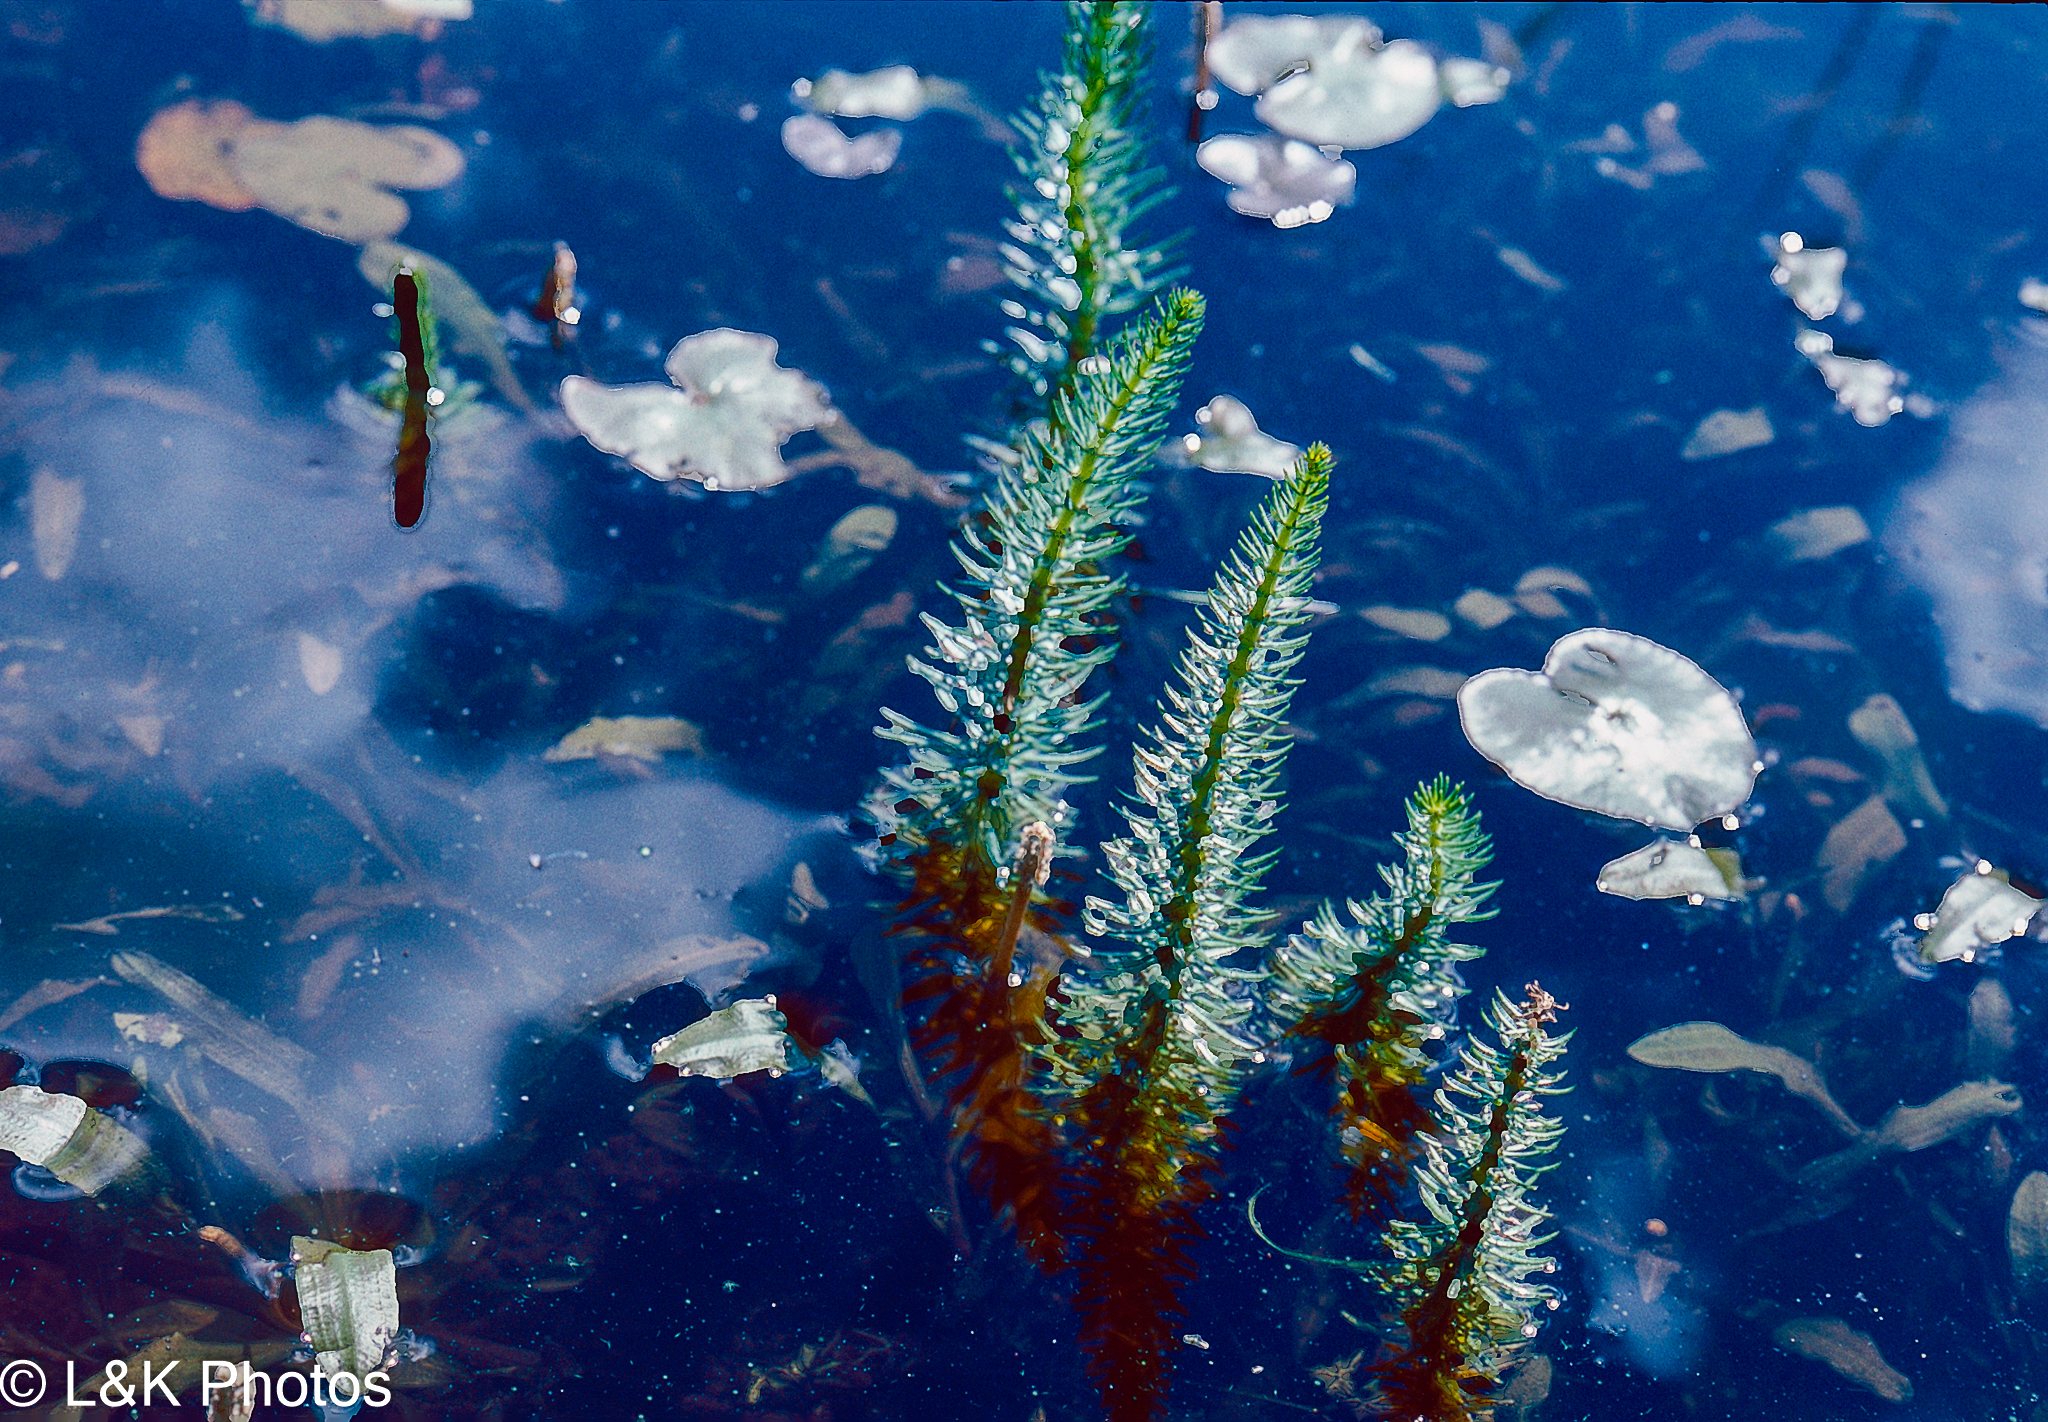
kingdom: Plantae
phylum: Tracheophyta
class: Magnoliopsida
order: Lamiales
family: Plantaginaceae
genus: Hippuris
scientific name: Hippuris vulgaris
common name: Mare's-tail
